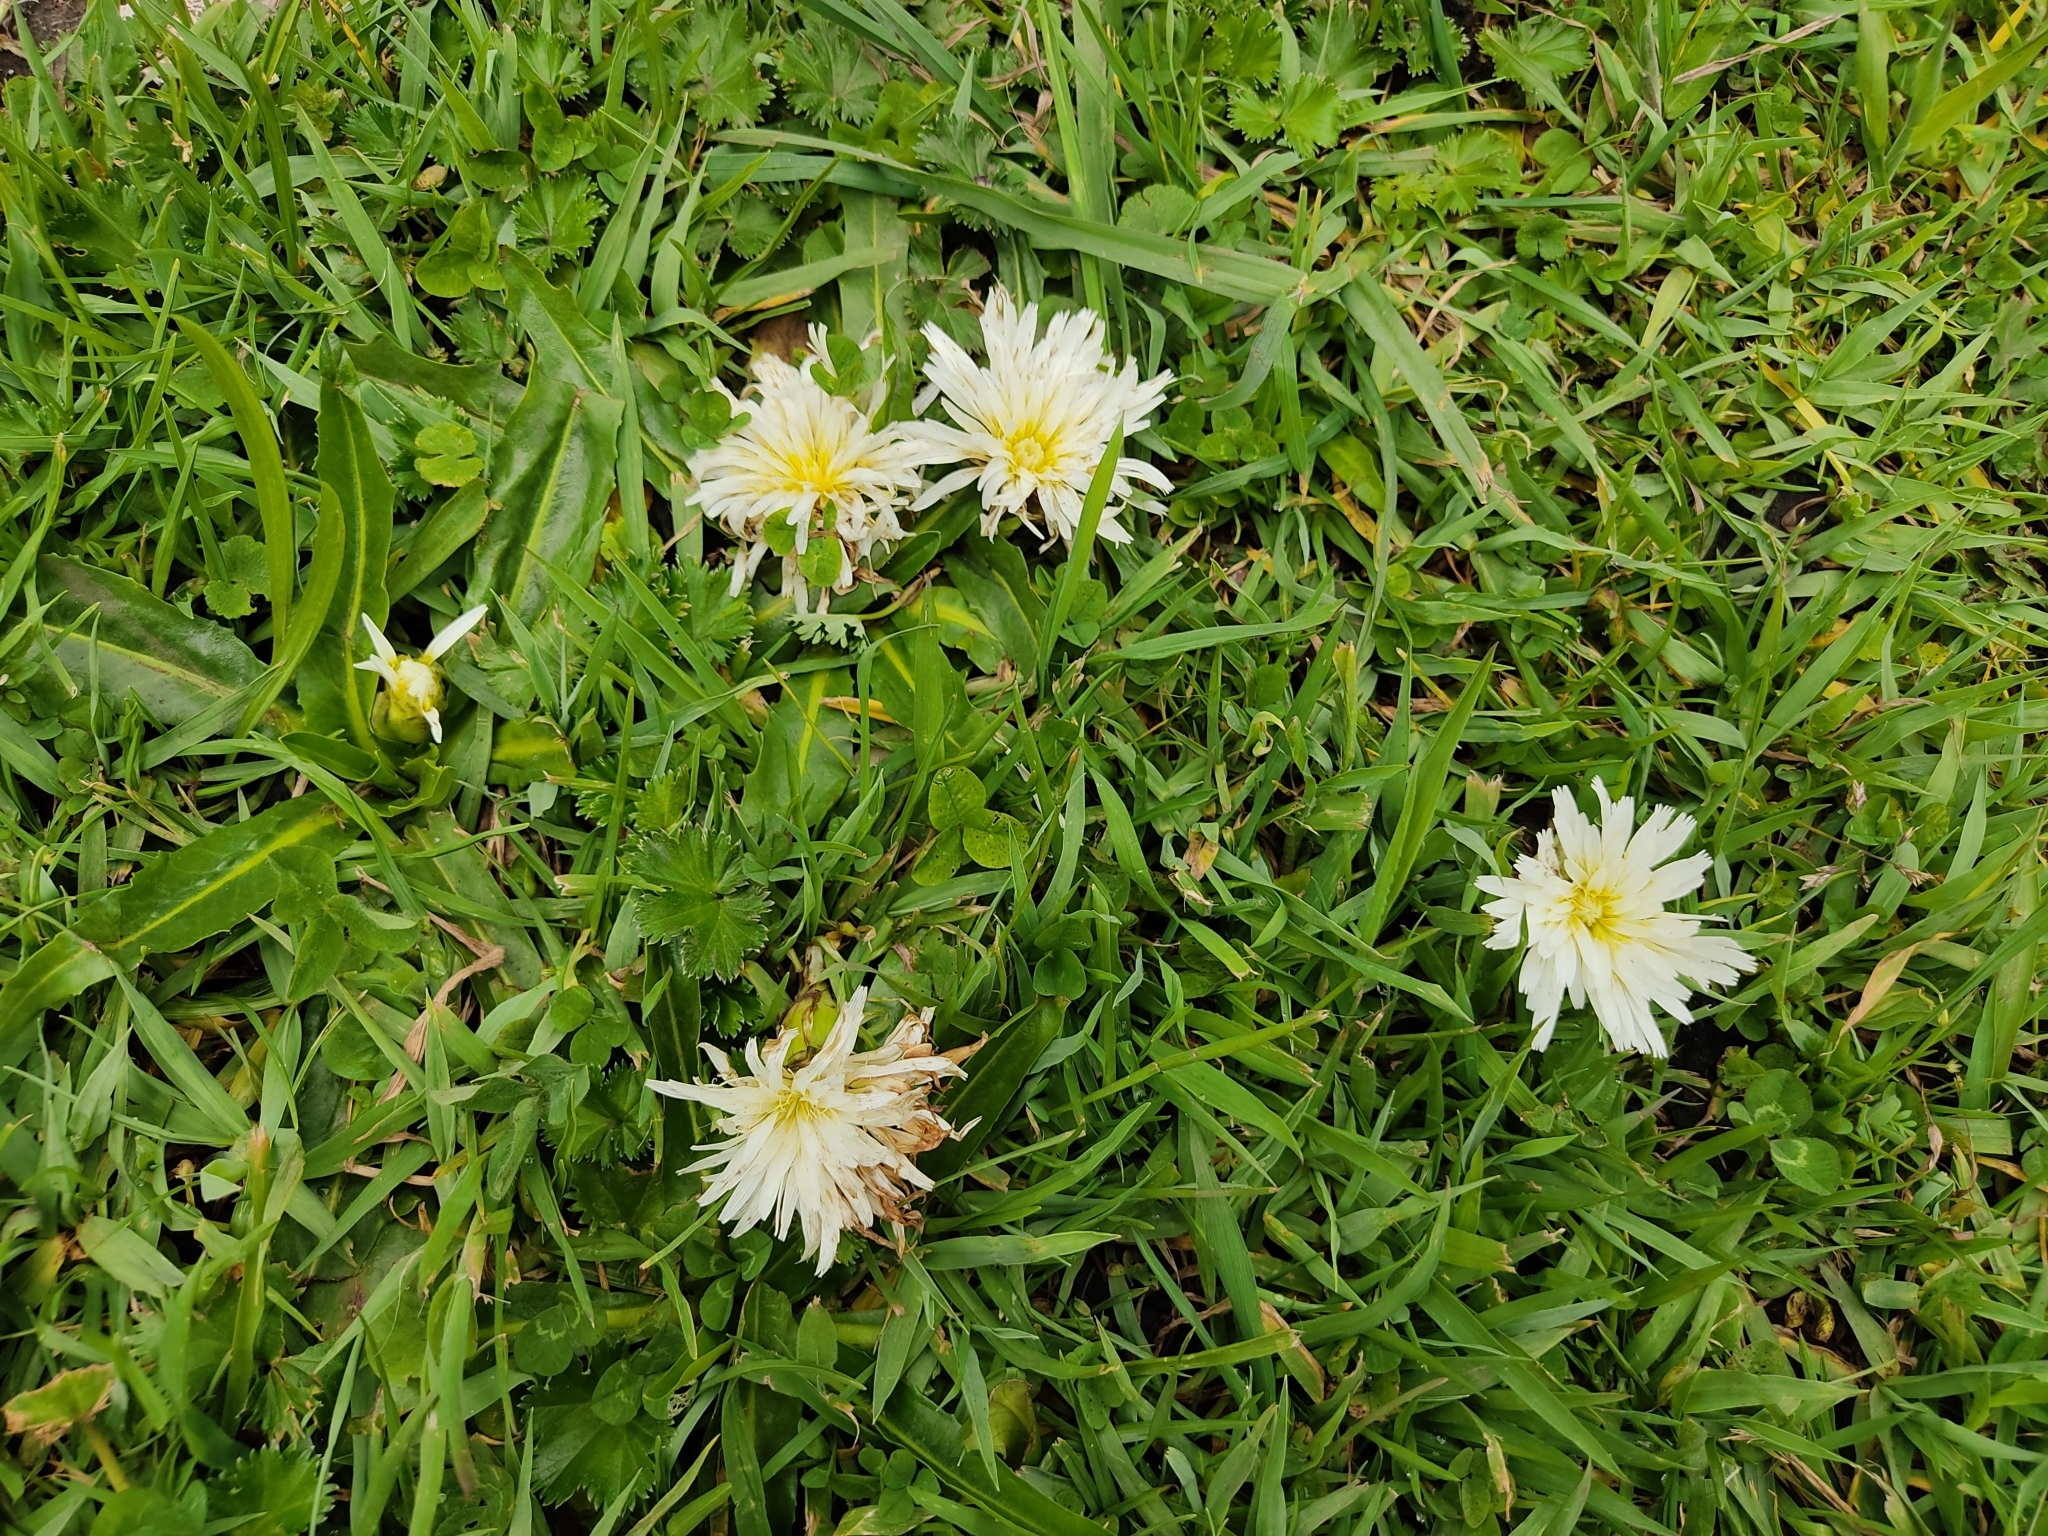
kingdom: Plantae
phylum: Tracheophyta
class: Magnoliopsida
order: Asterales
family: Asteraceae
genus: Hypochaeris
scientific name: Hypochaeris sessiliflora
